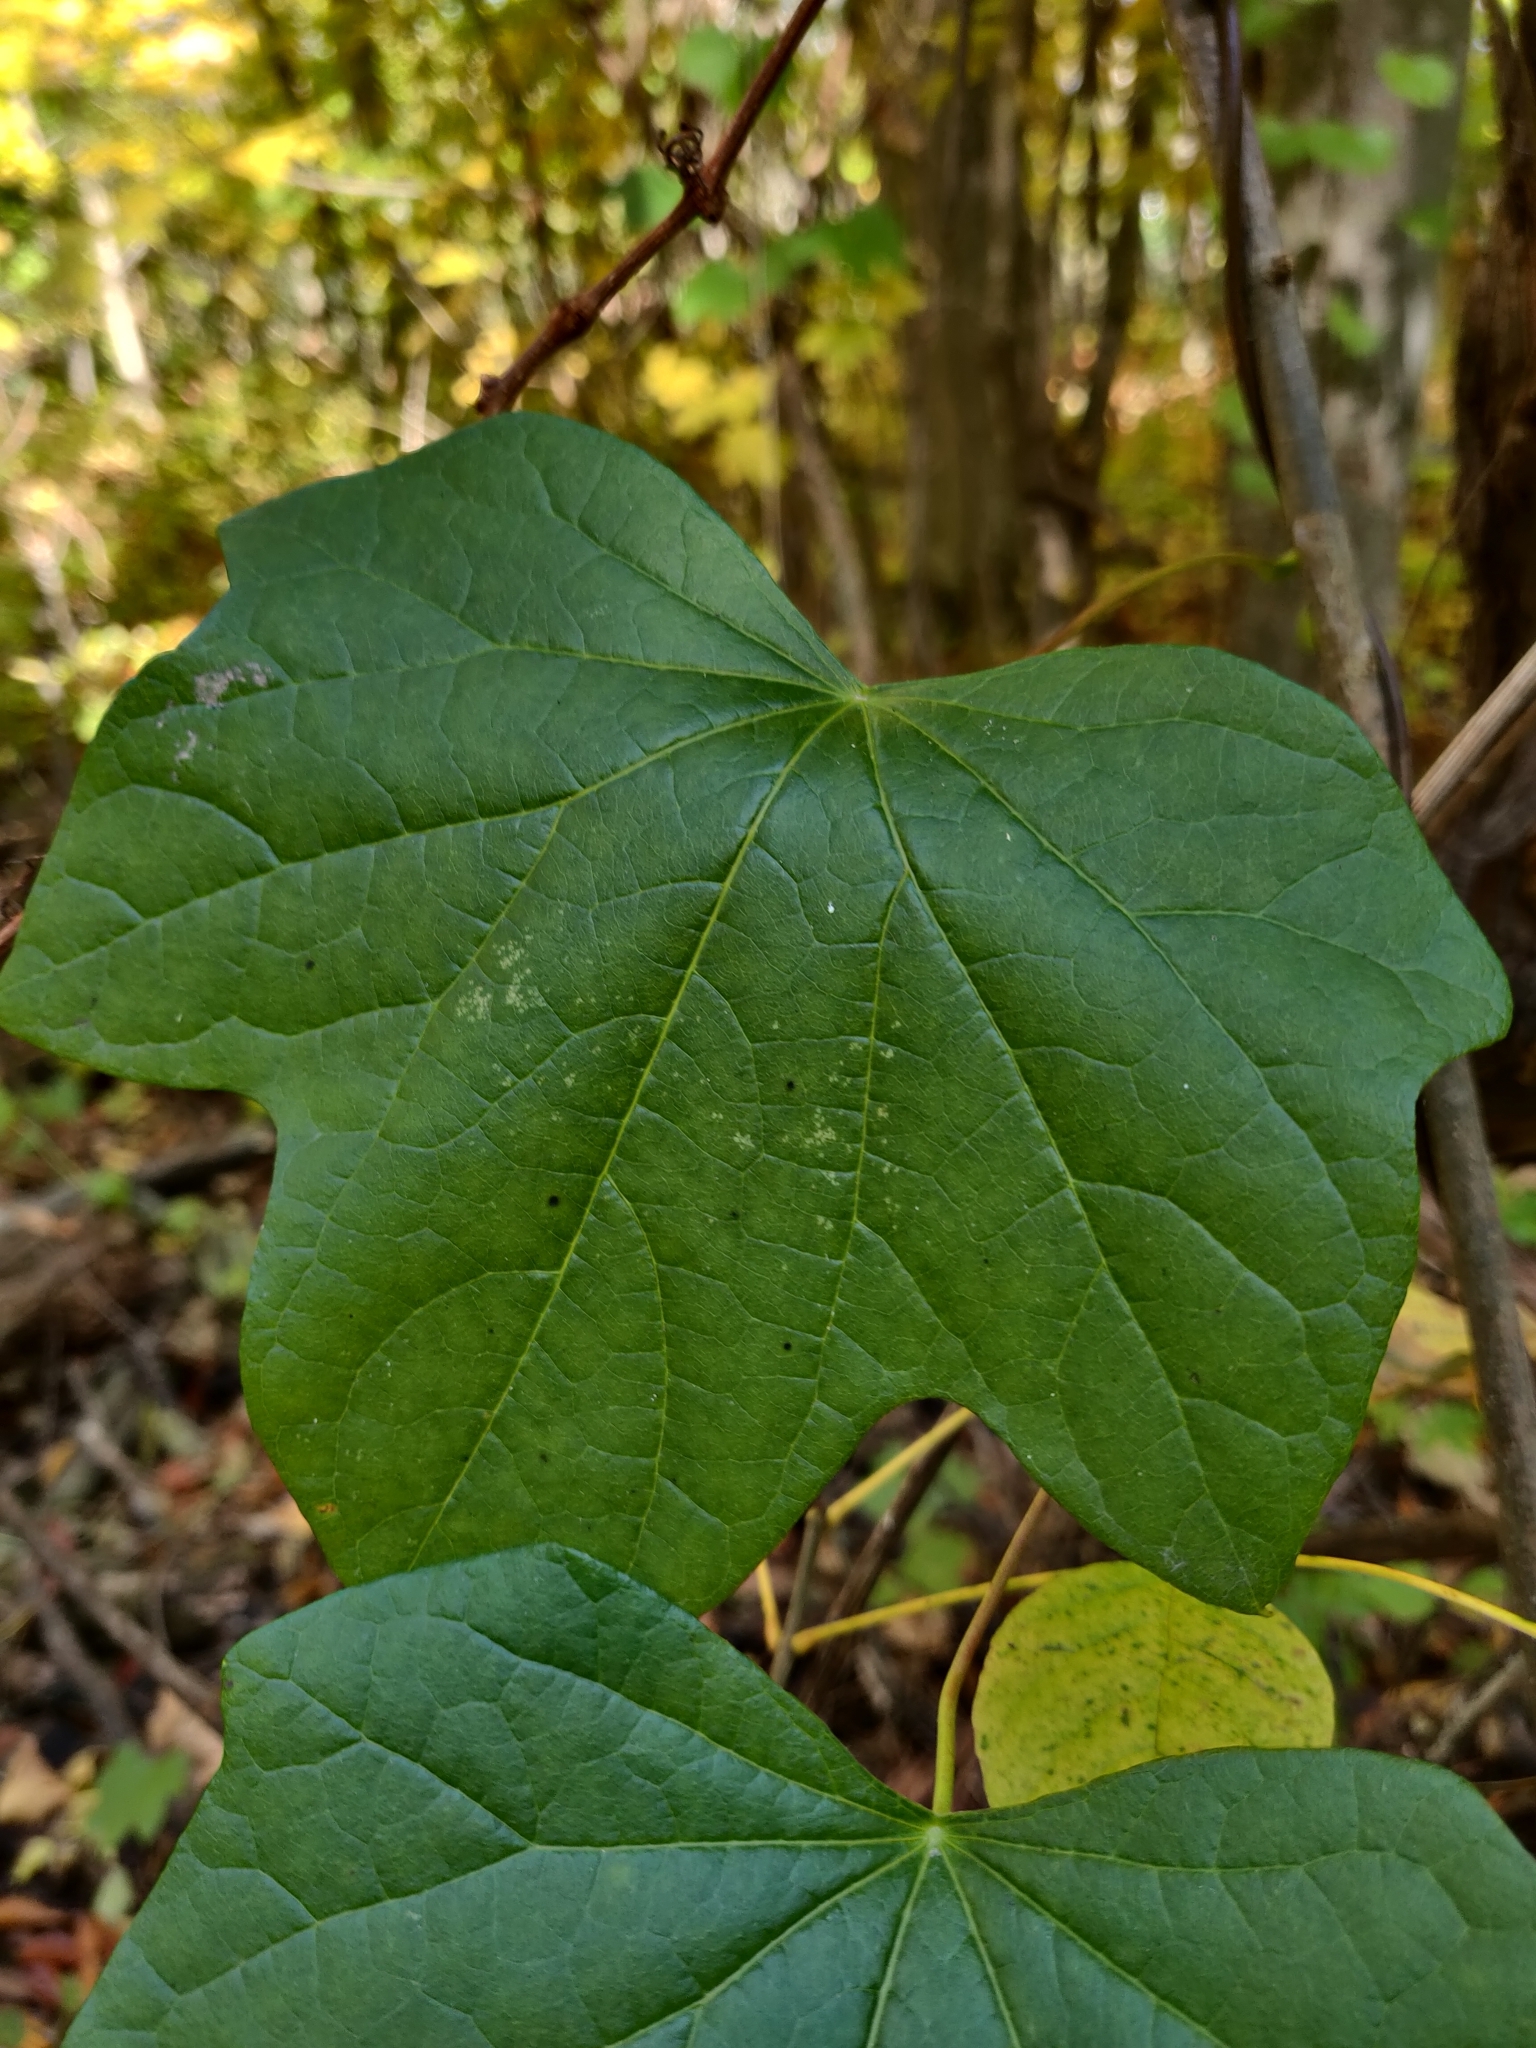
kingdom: Plantae
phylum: Tracheophyta
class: Magnoliopsida
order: Ranunculales
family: Menispermaceae
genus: Menispermum
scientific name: Menispermum canadense
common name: Moonseed
